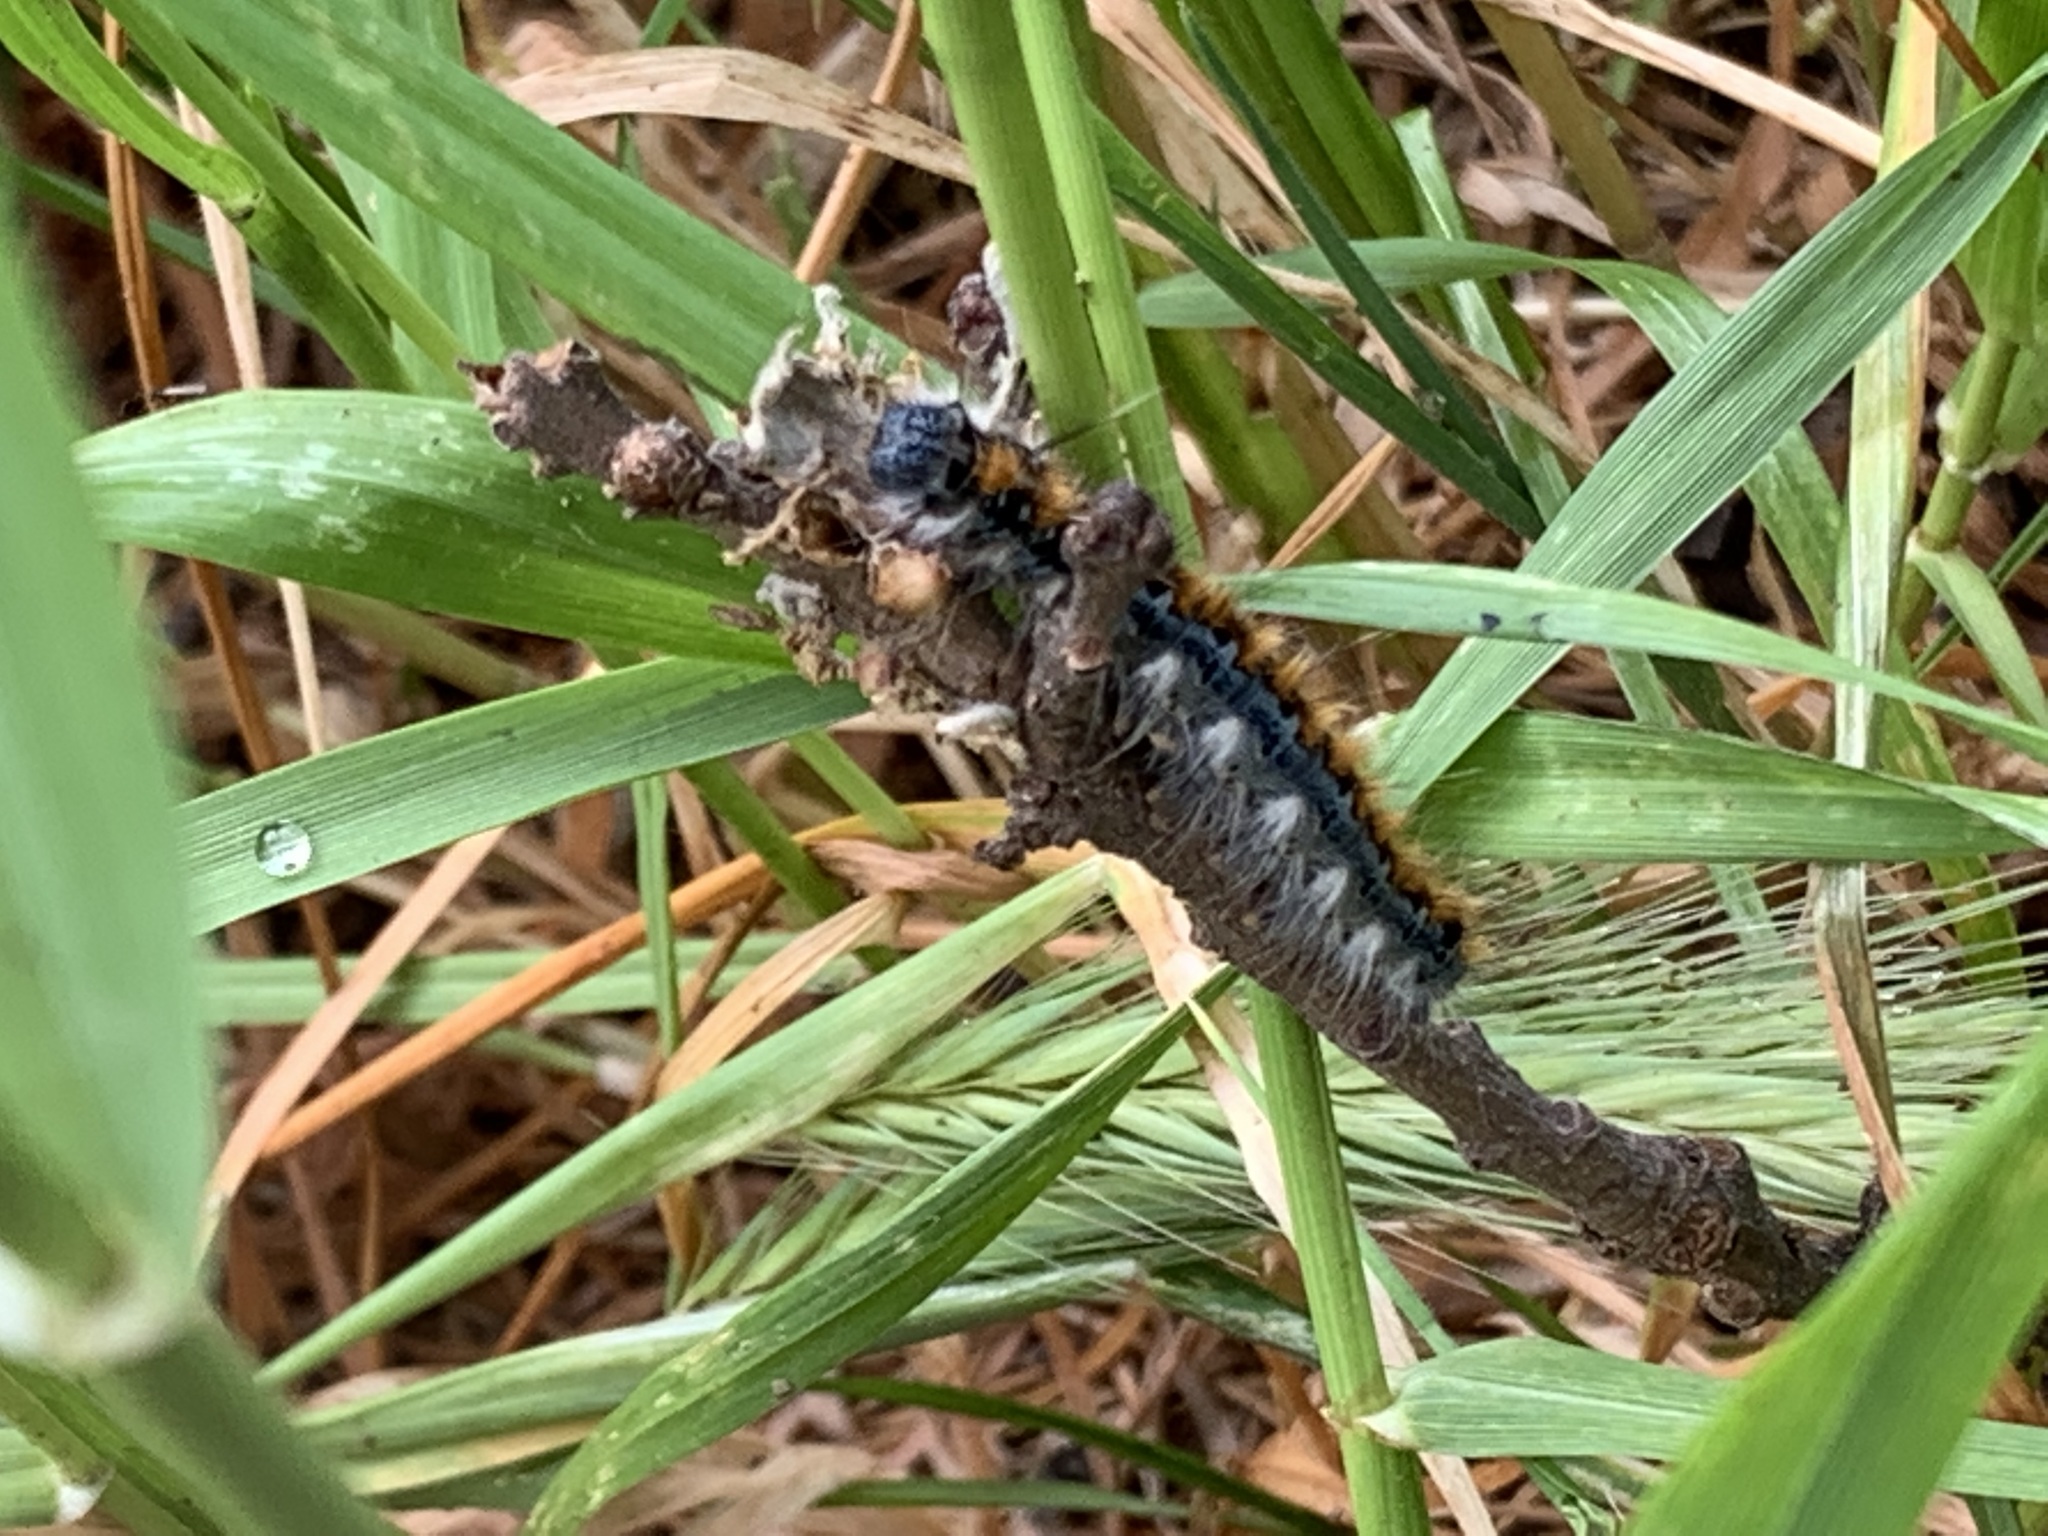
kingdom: Animalia
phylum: Arthropoda
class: Insecta
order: Lepidoptera
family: Lasiocampidae
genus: Malacosoma
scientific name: Malacosoma constricta
